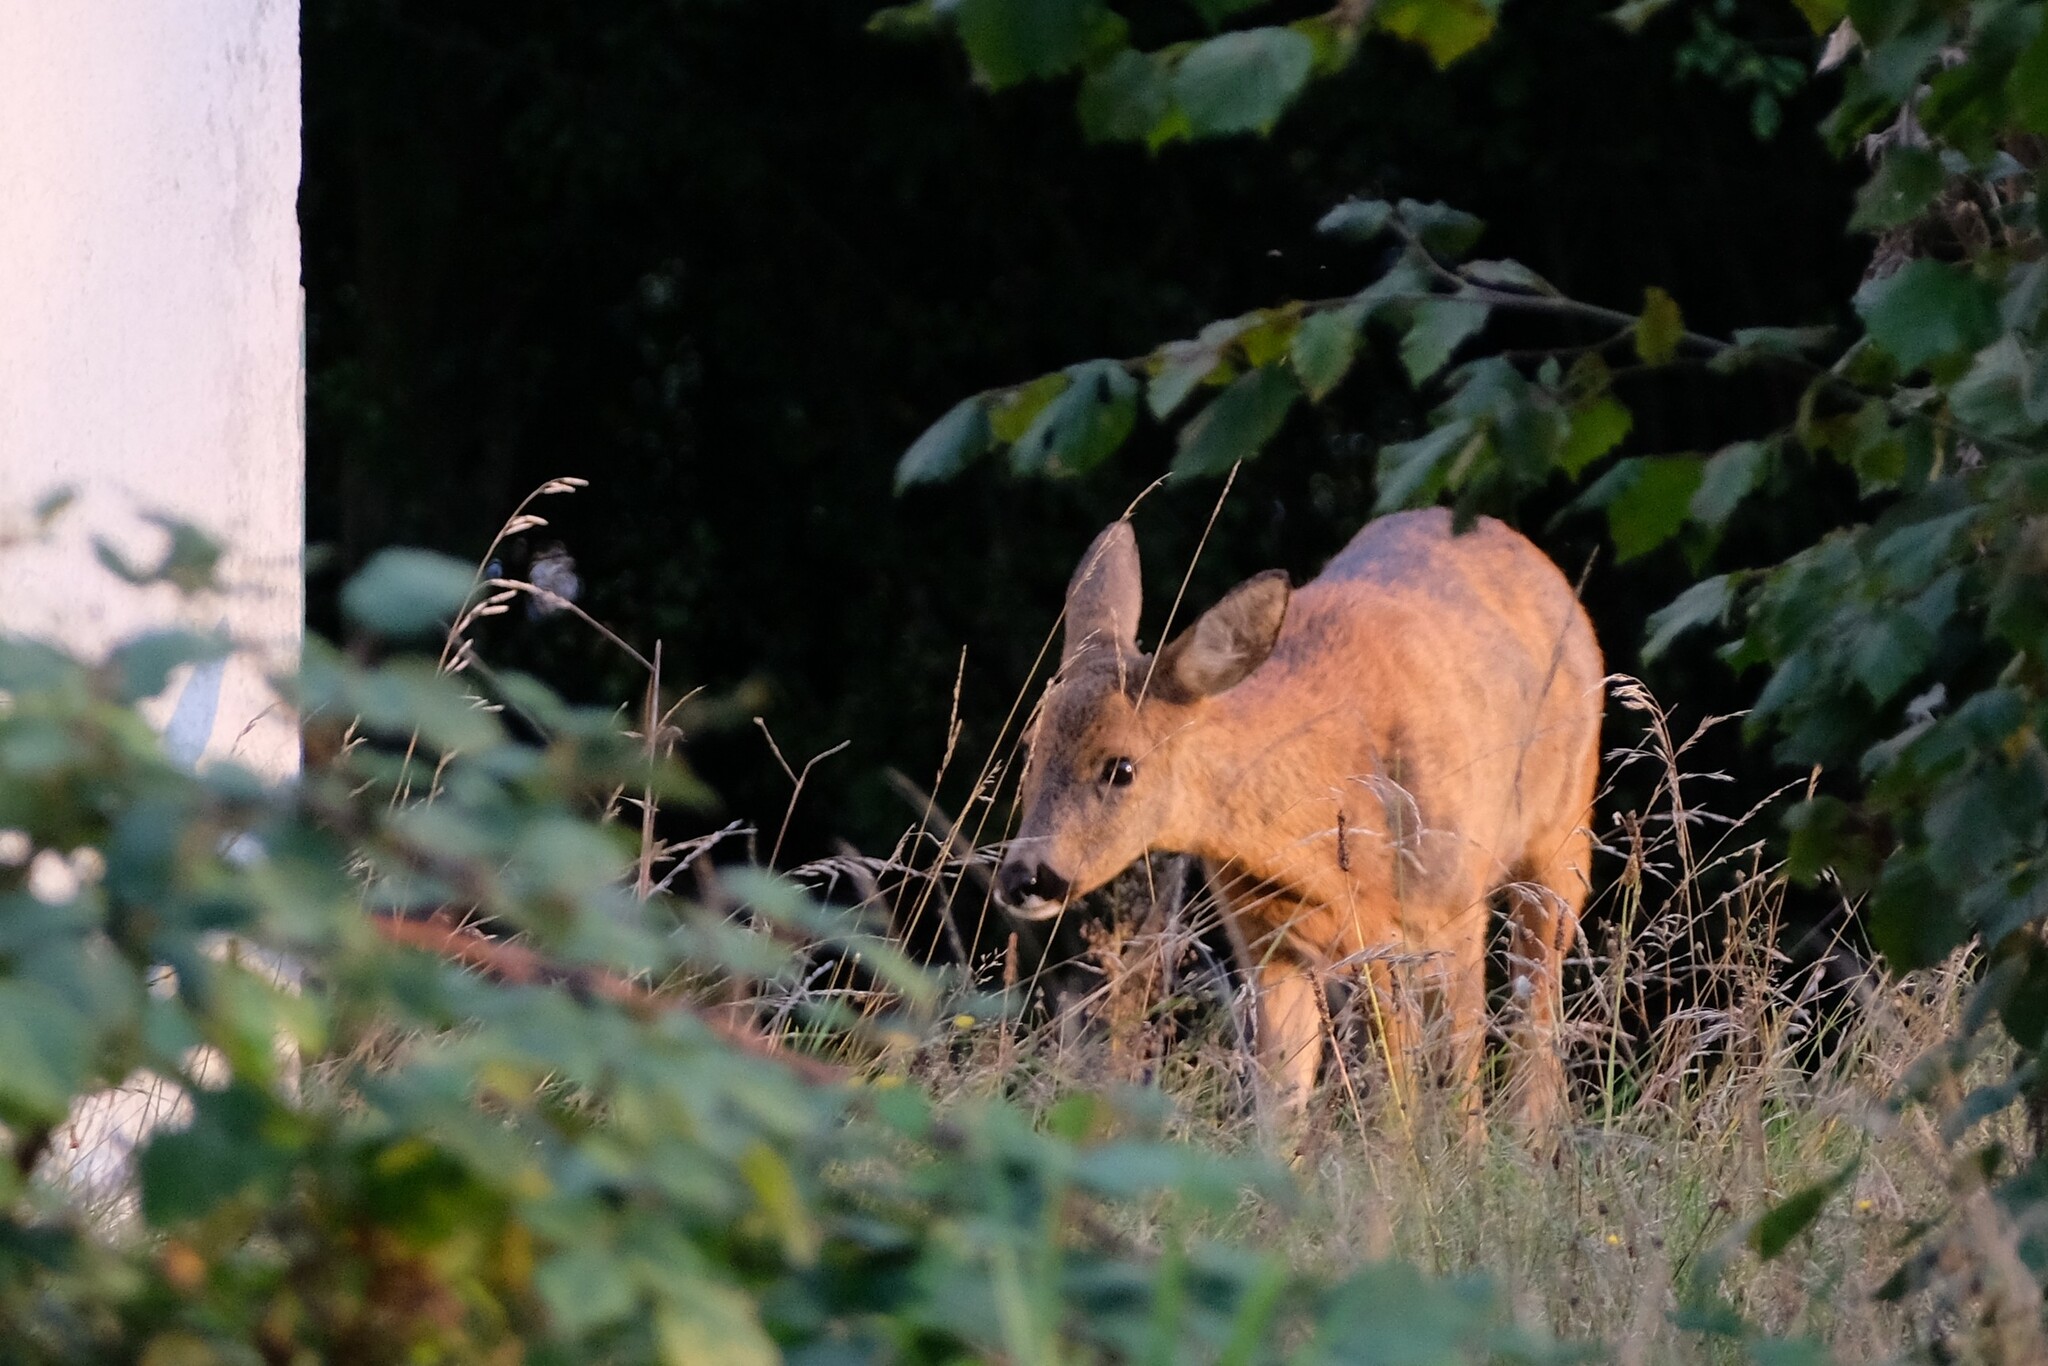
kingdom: Animalia
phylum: Chordata
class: Mammalia
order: Artiodactyla
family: Cervidae
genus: Capreolus
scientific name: Capreolus capreolus
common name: Western roe deer
